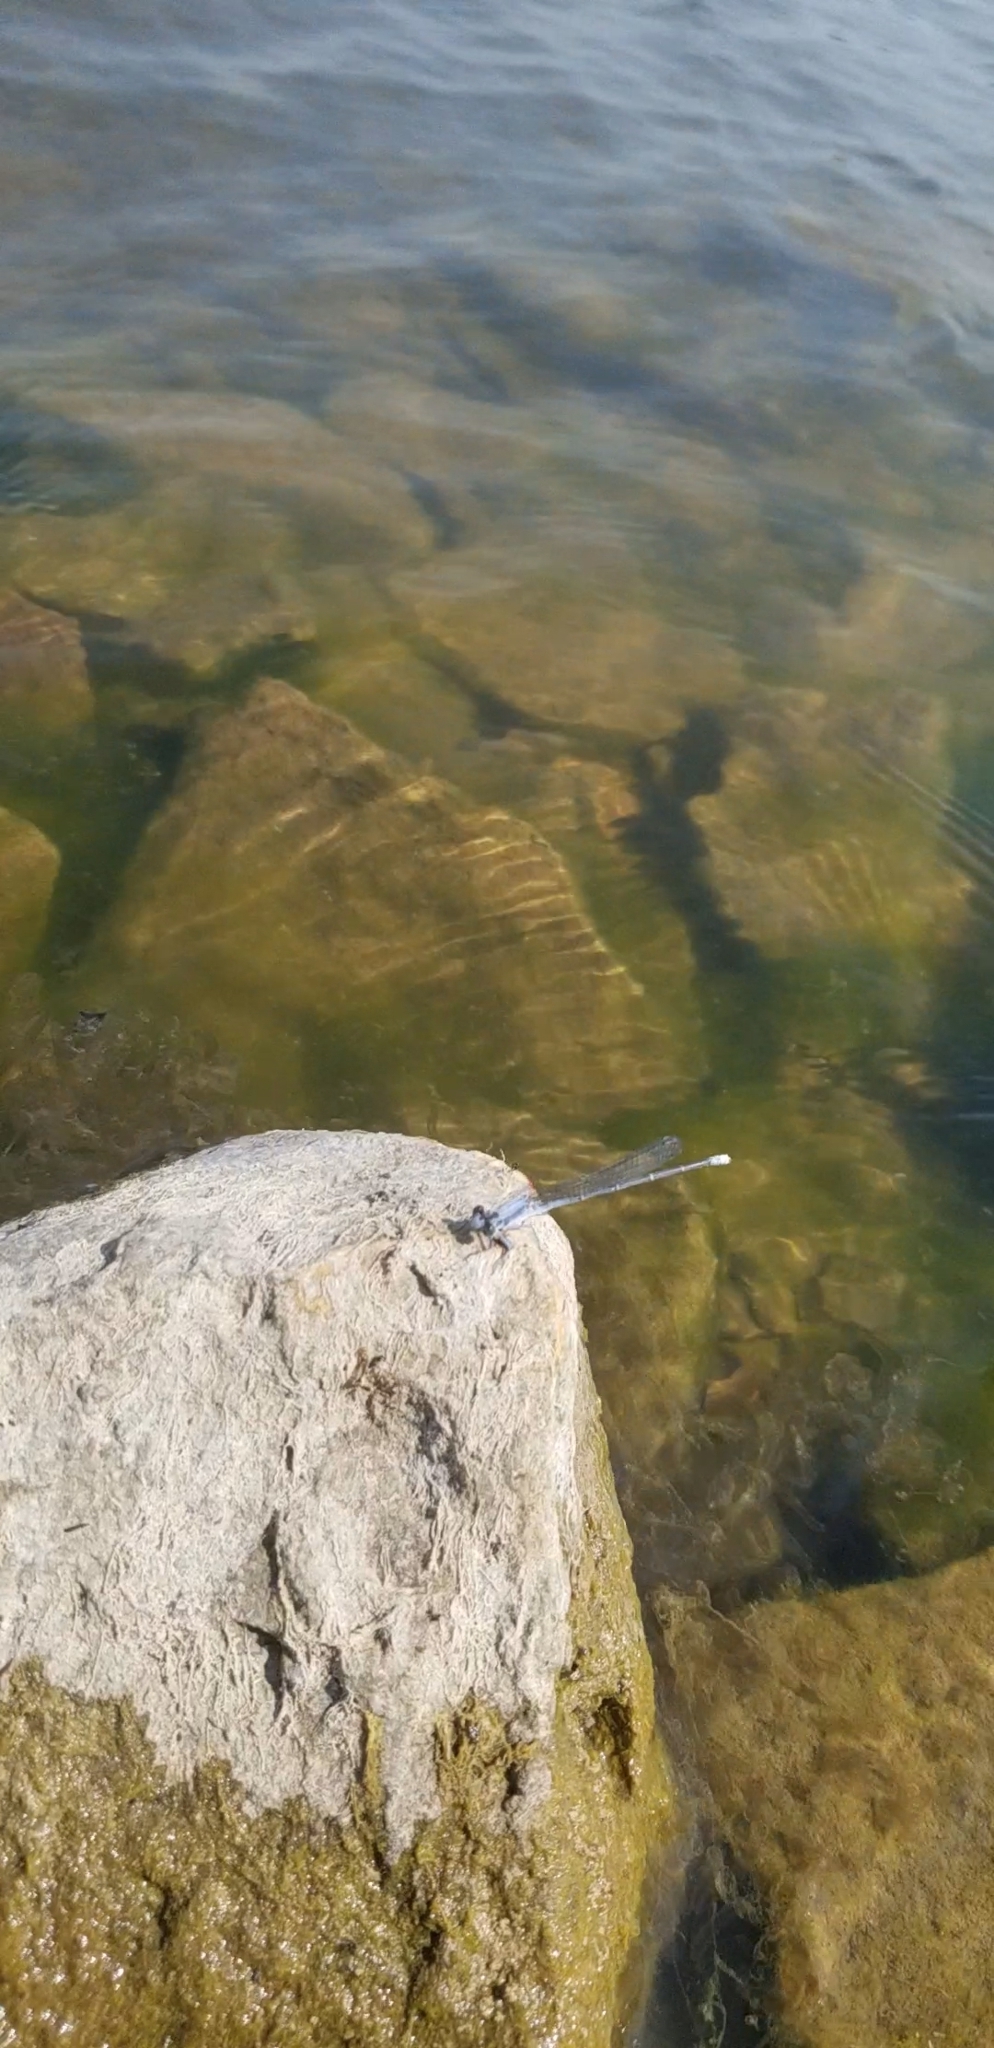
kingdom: Animalia
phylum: Arthropoda
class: Insecta
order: Odonata
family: Coenagrionidae
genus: Argia
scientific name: Argia moesta
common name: Powdered dancer
